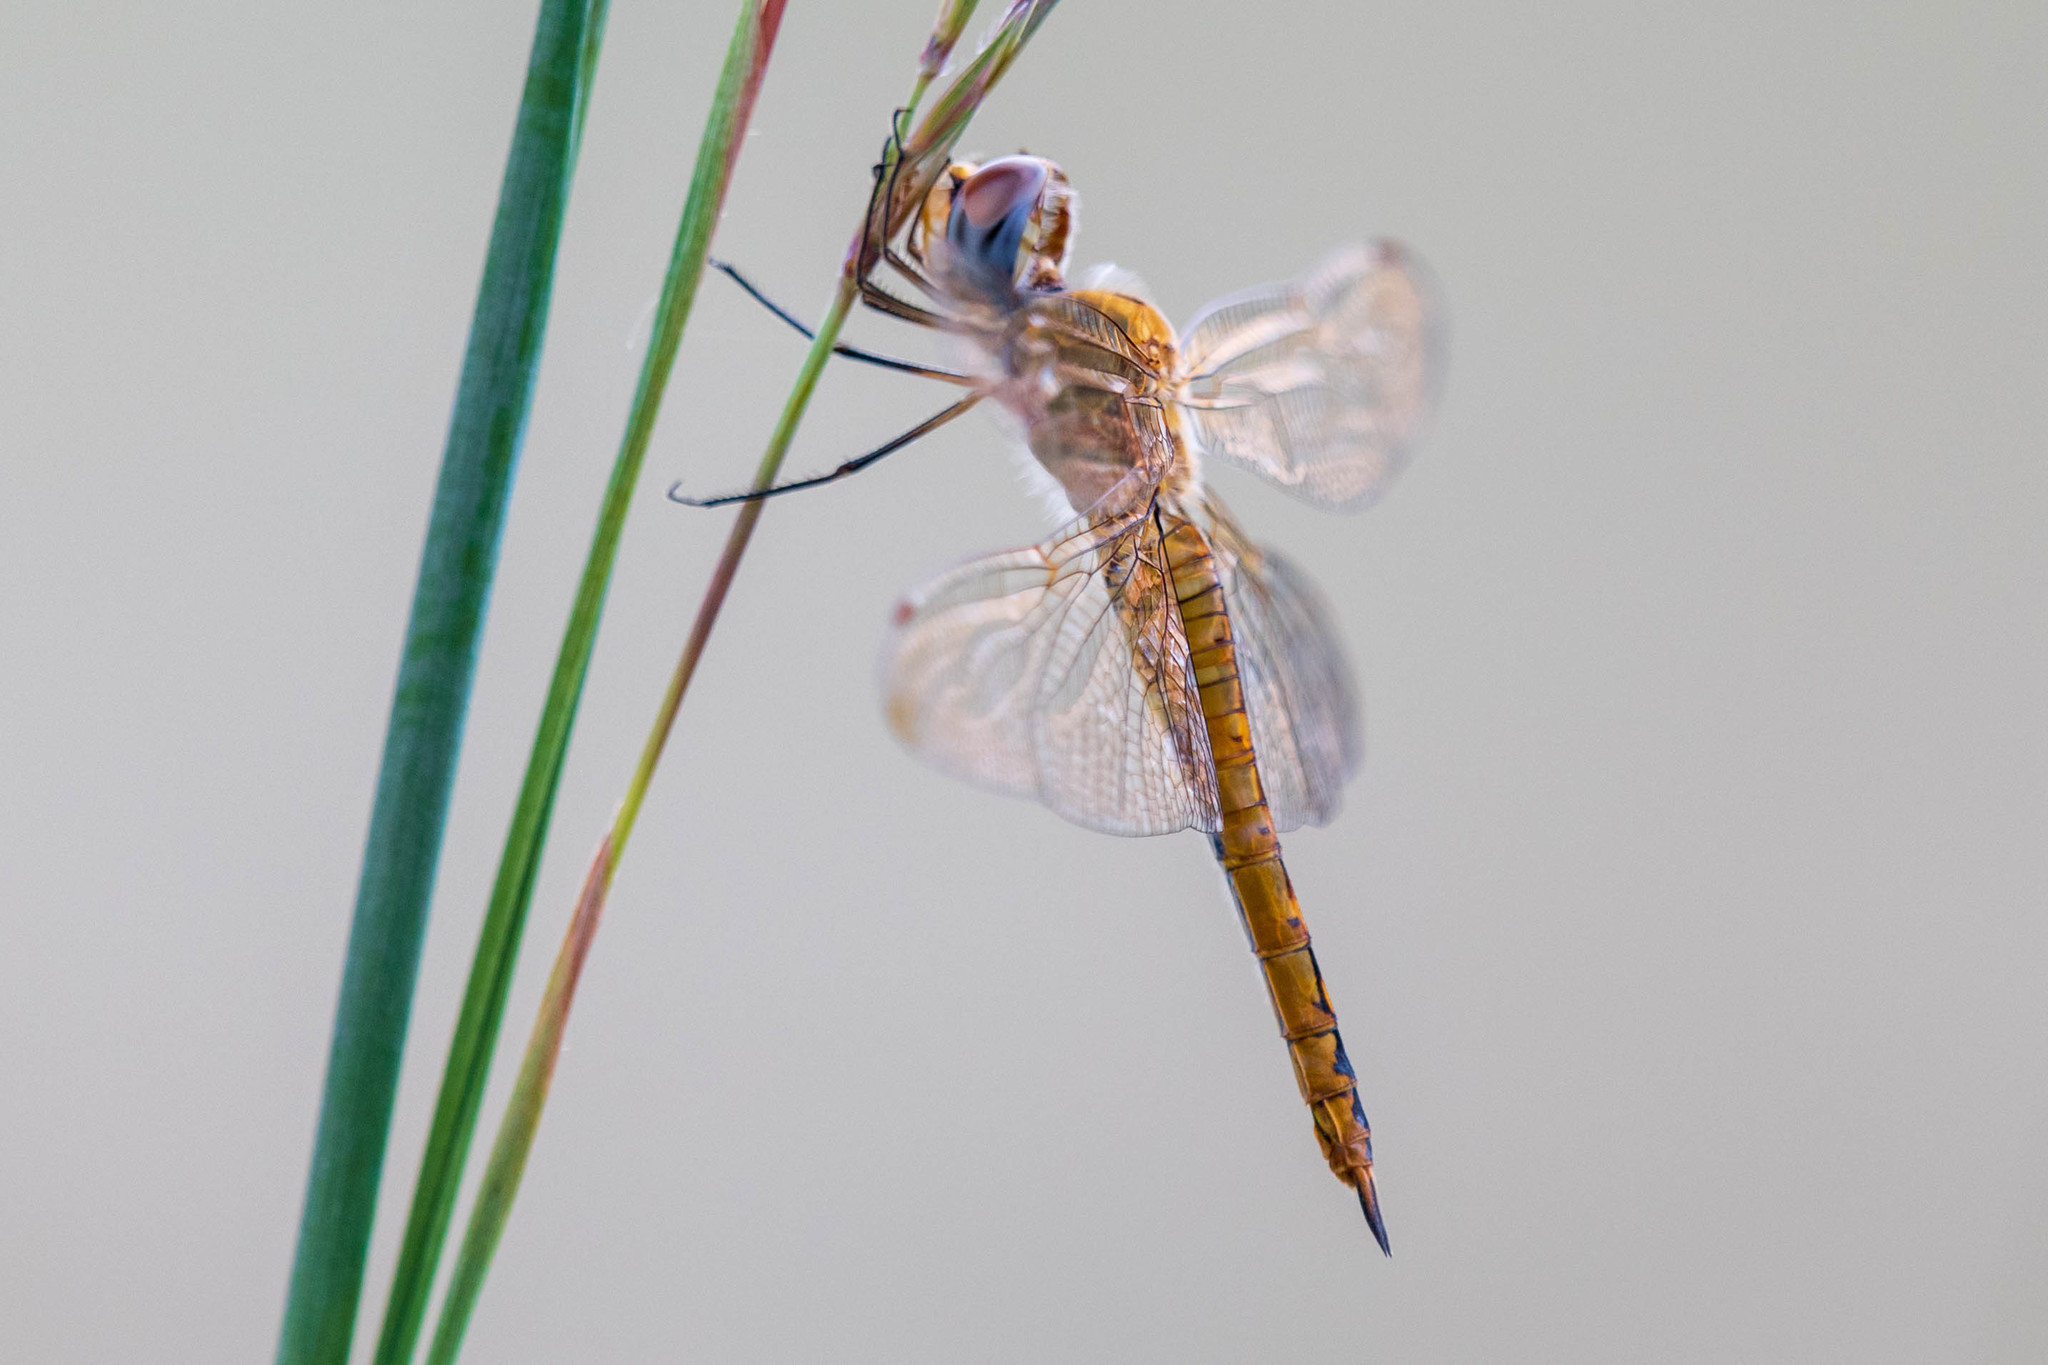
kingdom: Animalia
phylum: Arthropoda
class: Insecta
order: Odonata
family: Libellulidae
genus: Pantala
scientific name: Pantala flavescens
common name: Wandering glider
